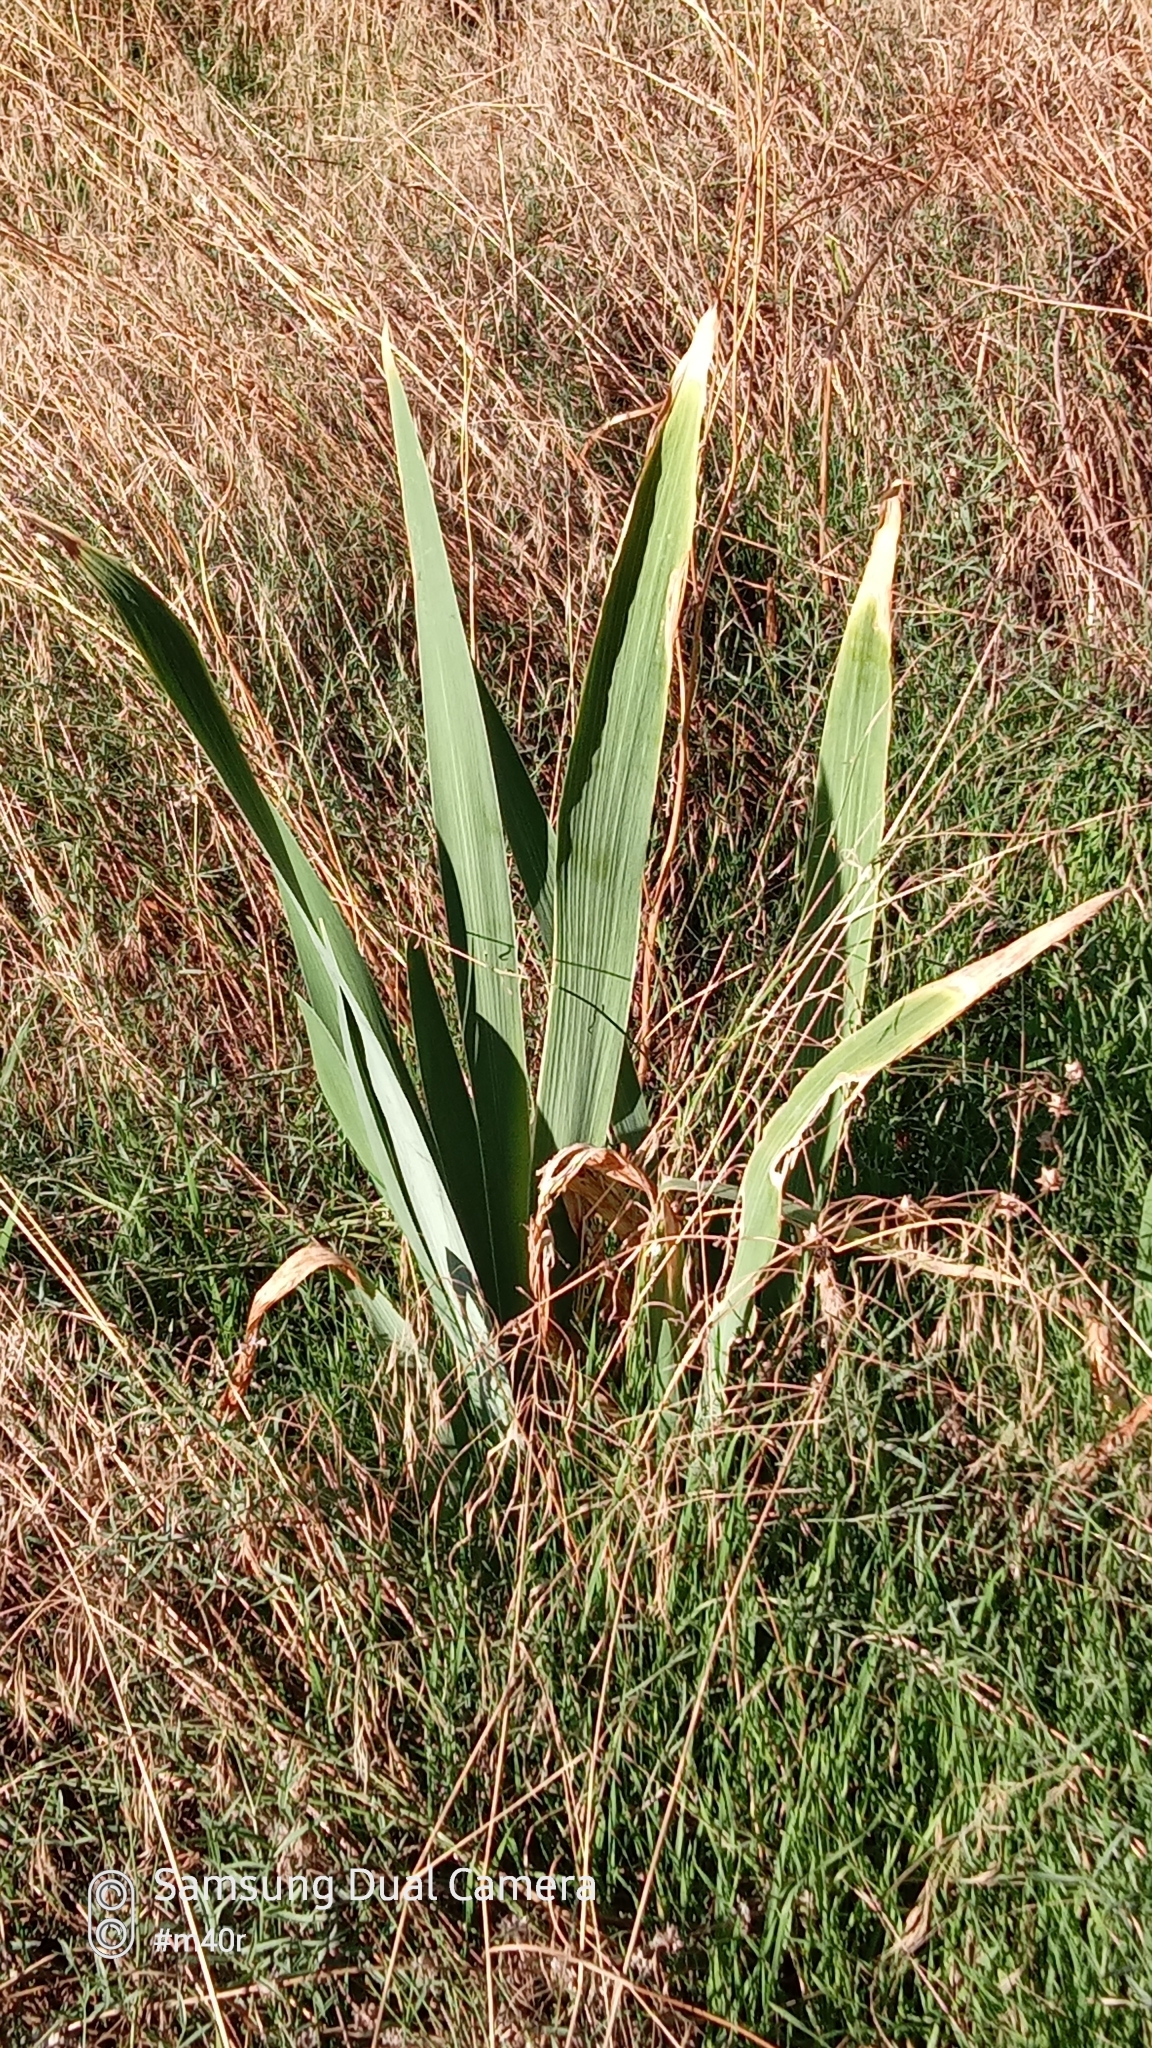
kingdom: Plantae
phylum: Tracheophyta
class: Liliopsida
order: Asparagales
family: Iridaceae
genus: Iris
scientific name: Iris halophila
